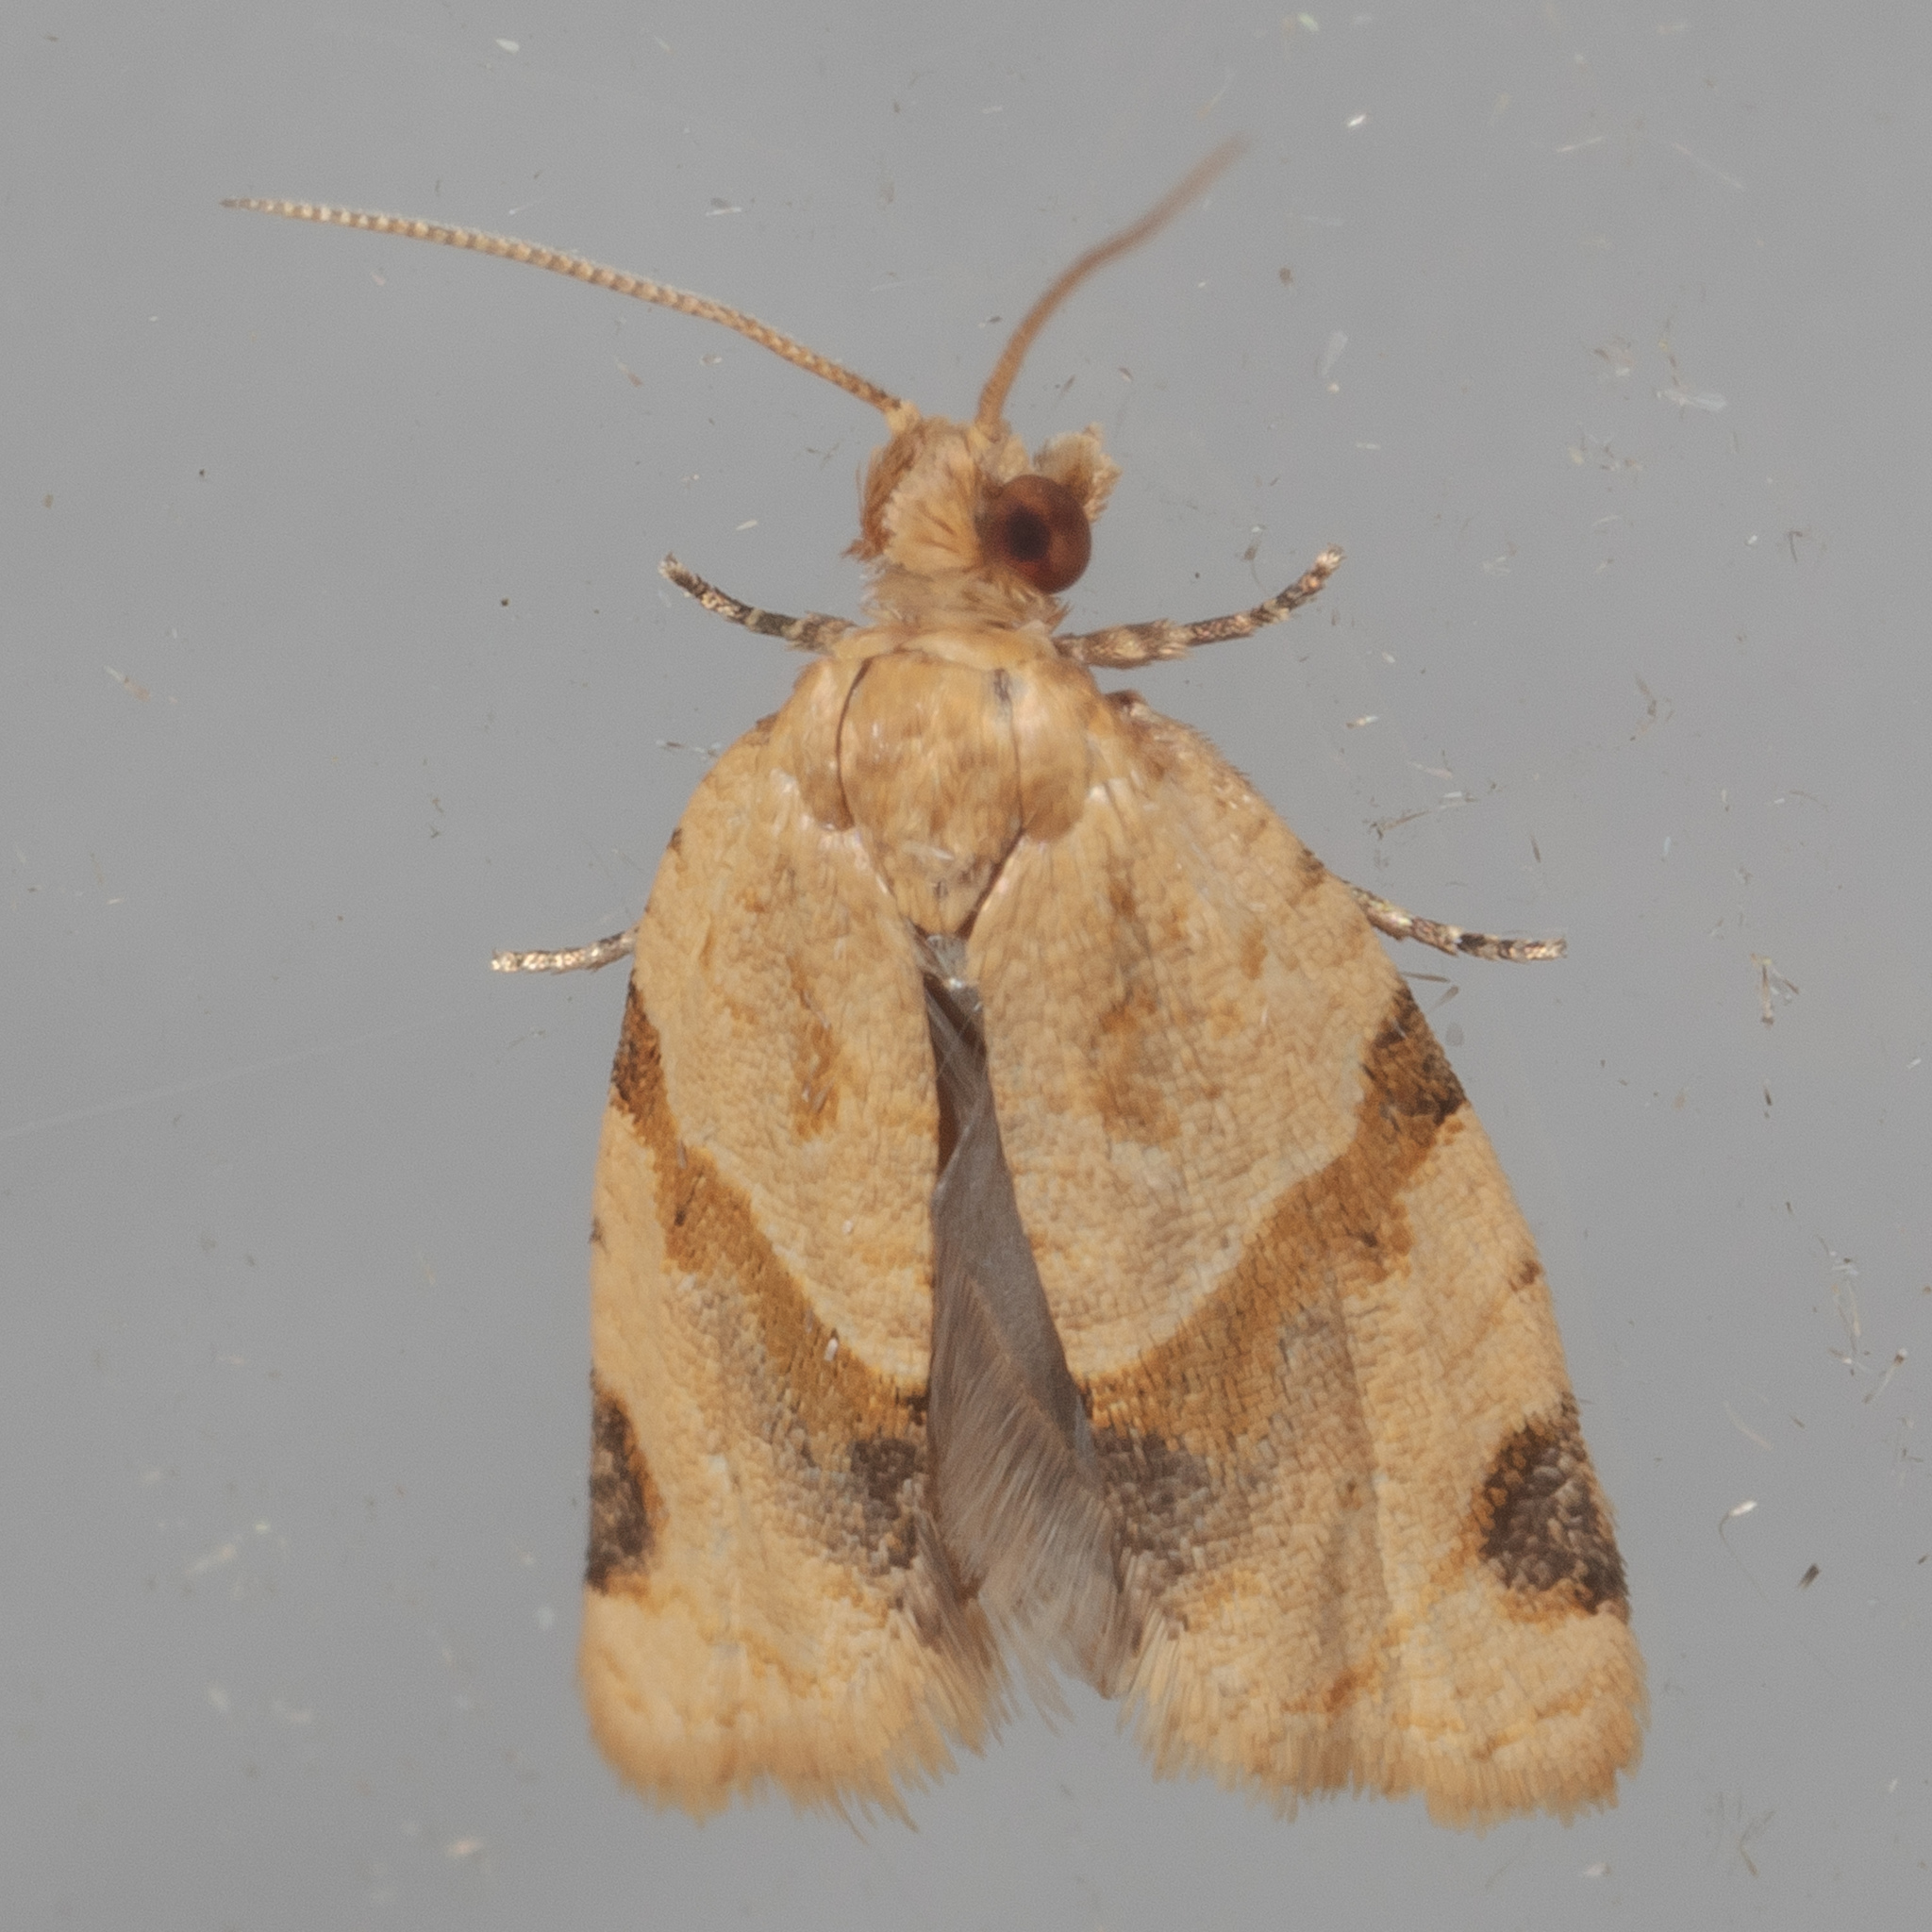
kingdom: Animalia
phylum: Arthropoda
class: Insecta
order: Lepidoptera
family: Tortricidae
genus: Clepsis
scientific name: Clepsis peritana
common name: Garden tortrix
